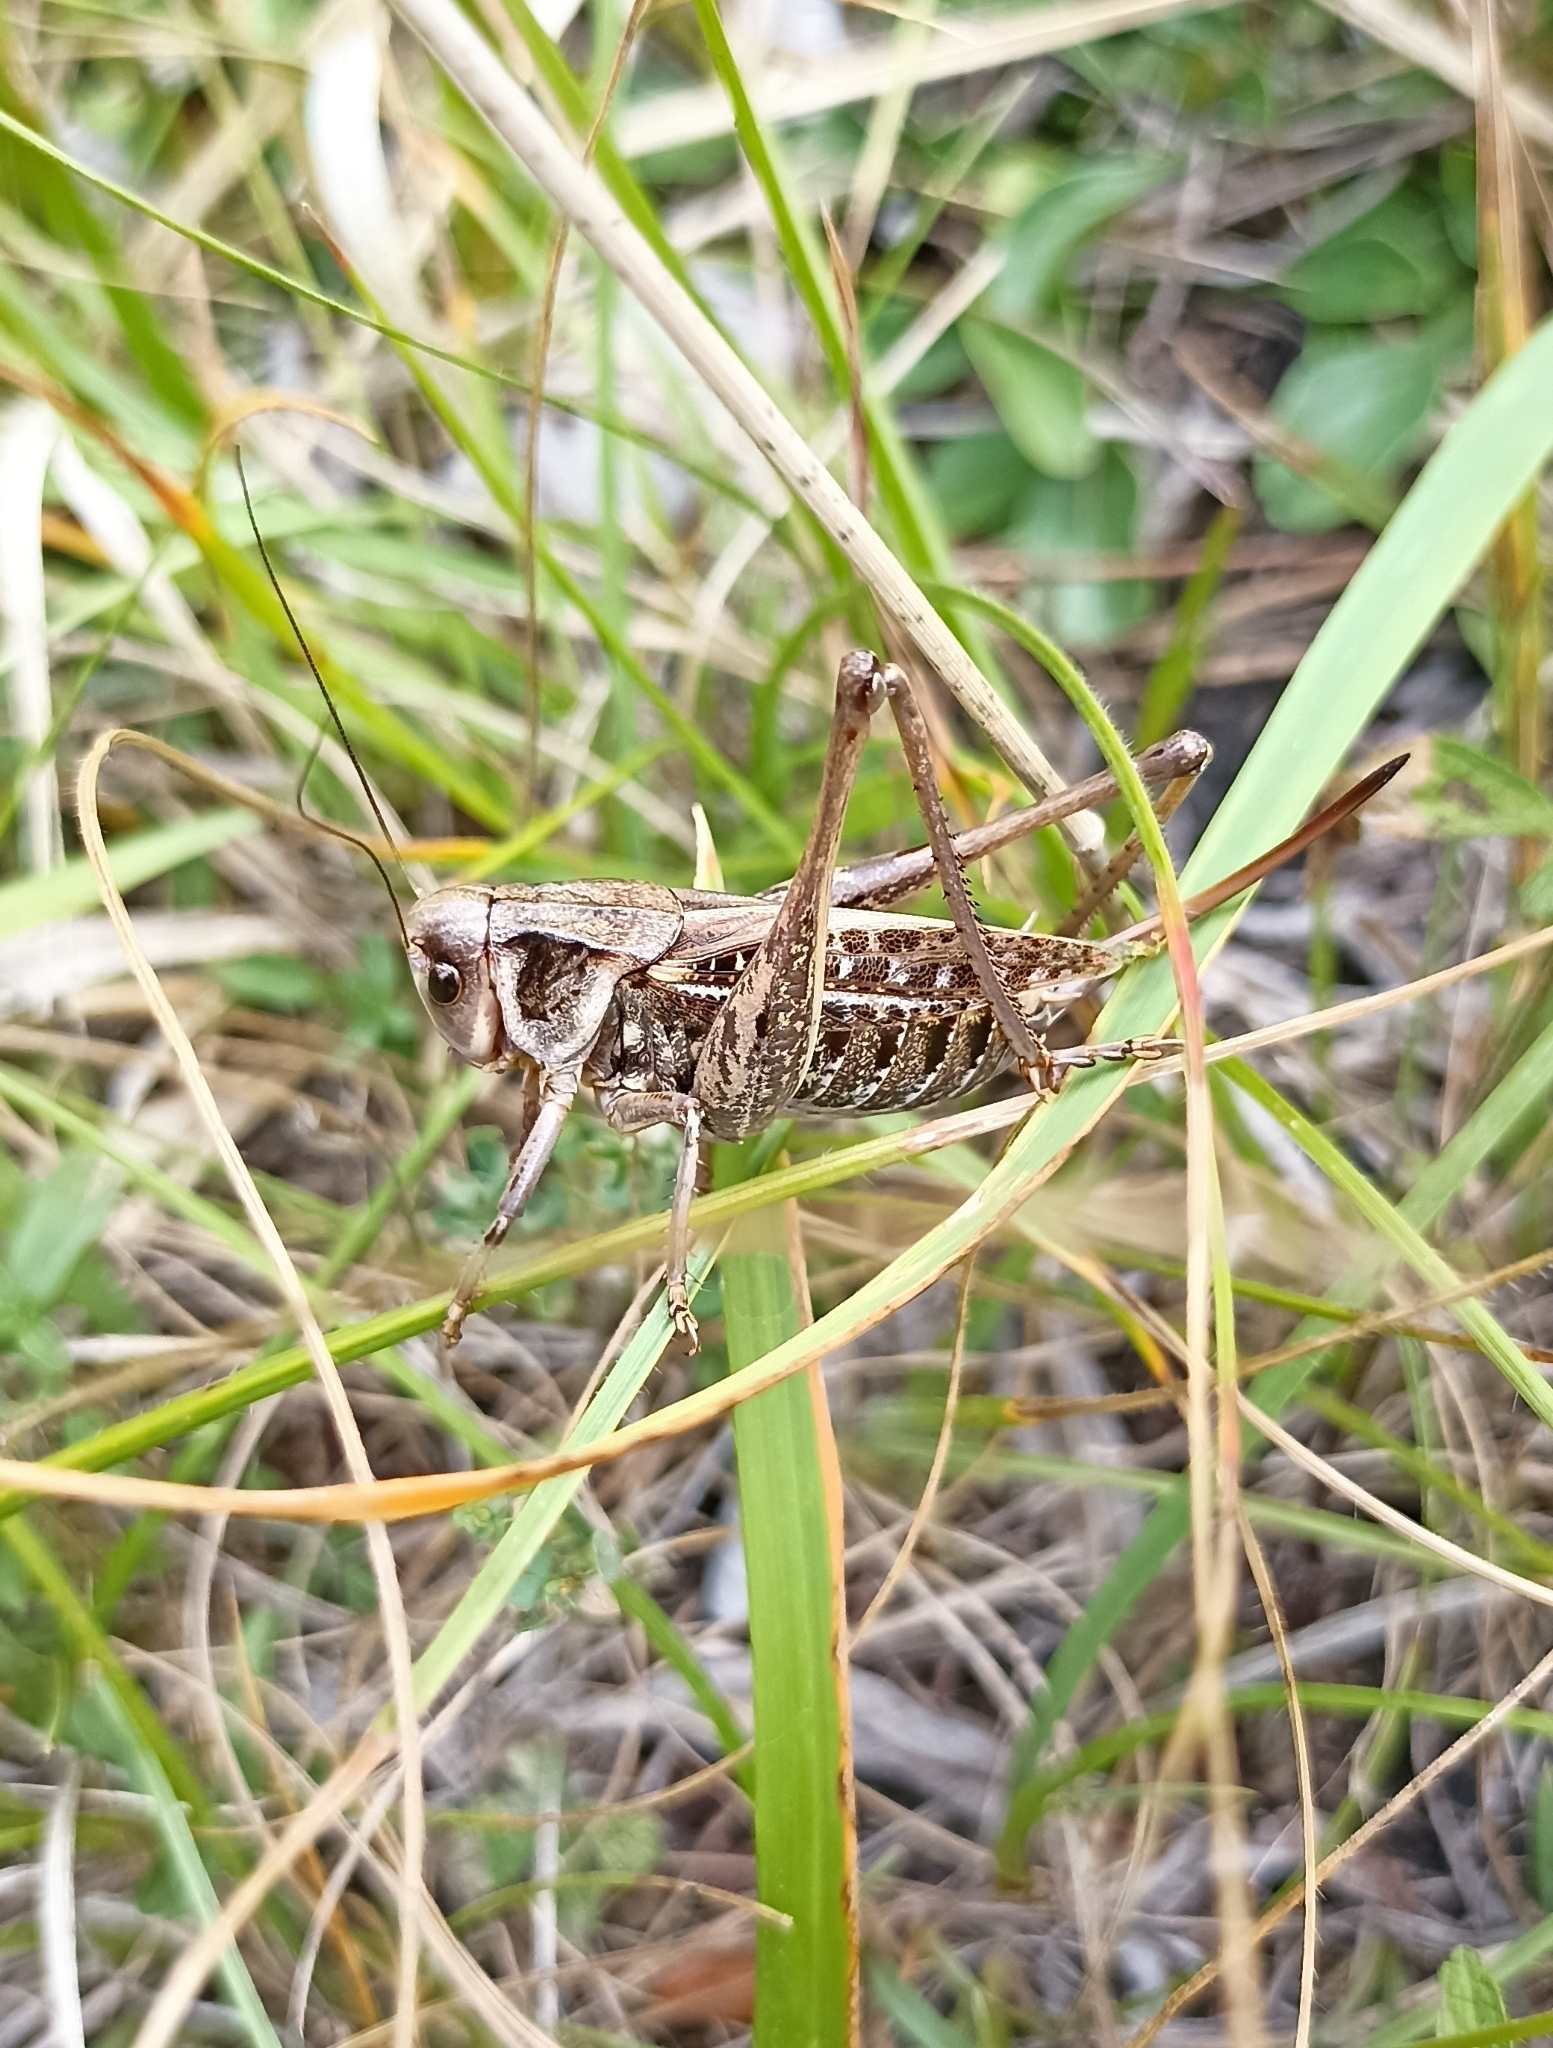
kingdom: Animalia
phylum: Arthropoda
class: Insecta
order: Orthoptera
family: Tettigoniidae
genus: Decticus
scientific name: Decticus verrucivorus
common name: Wart-biter
